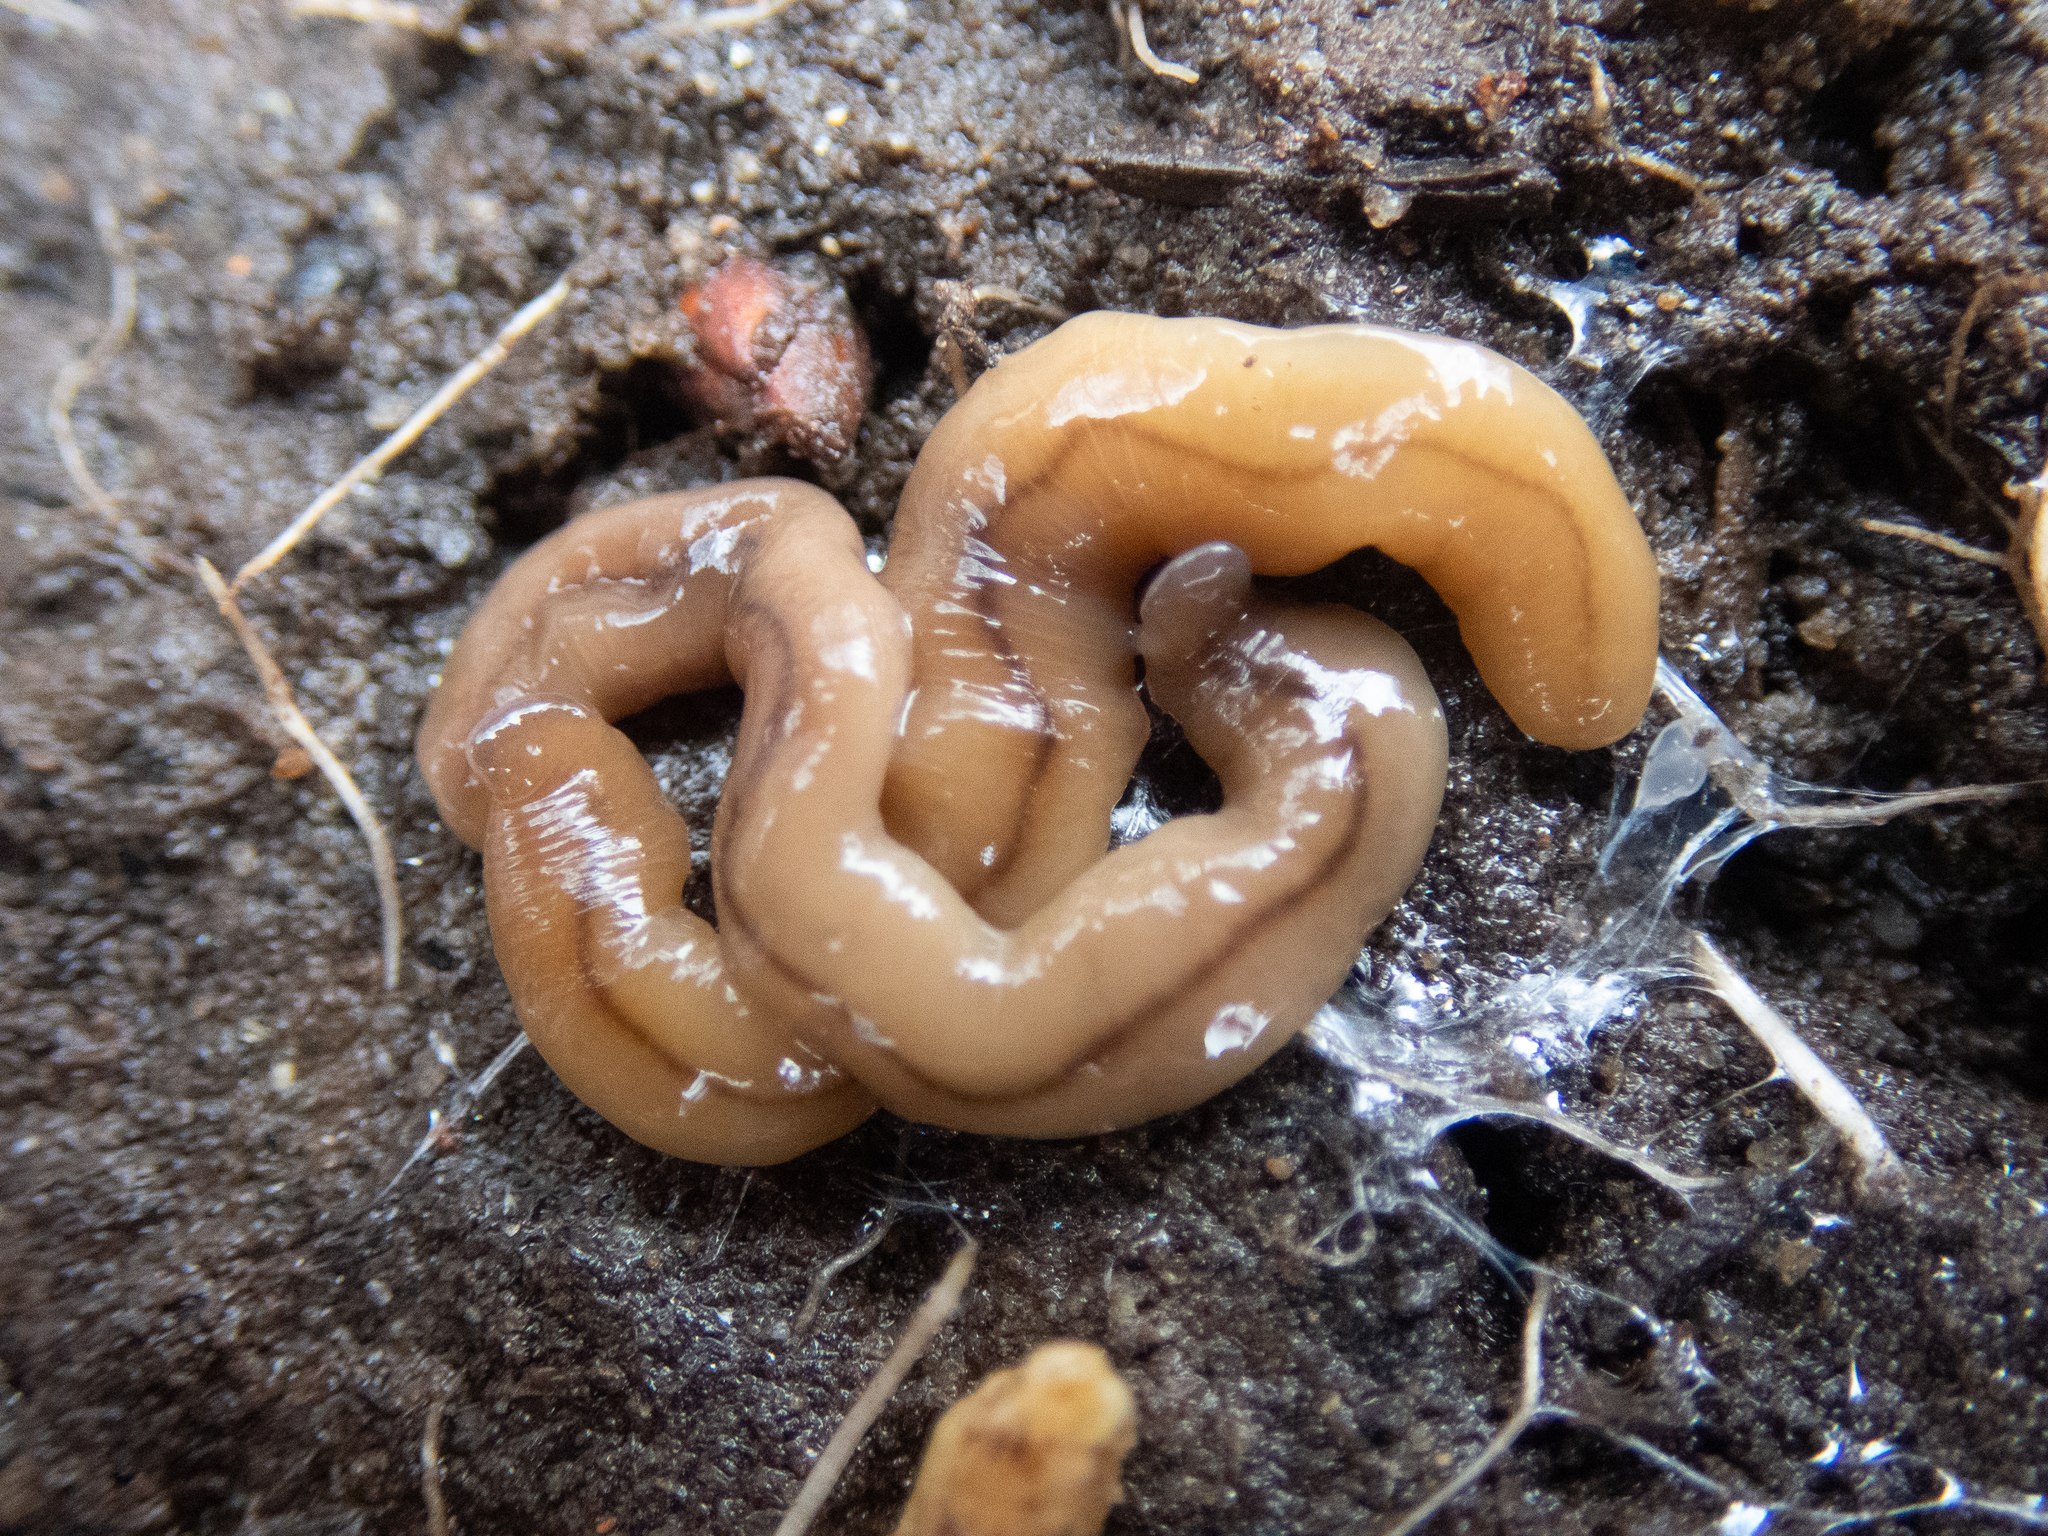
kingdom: Animalia
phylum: Platyhelminthes
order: Tricladida
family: Geoplanidae
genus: Bipalium
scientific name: Bipalium adventitium
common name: Land planarian
